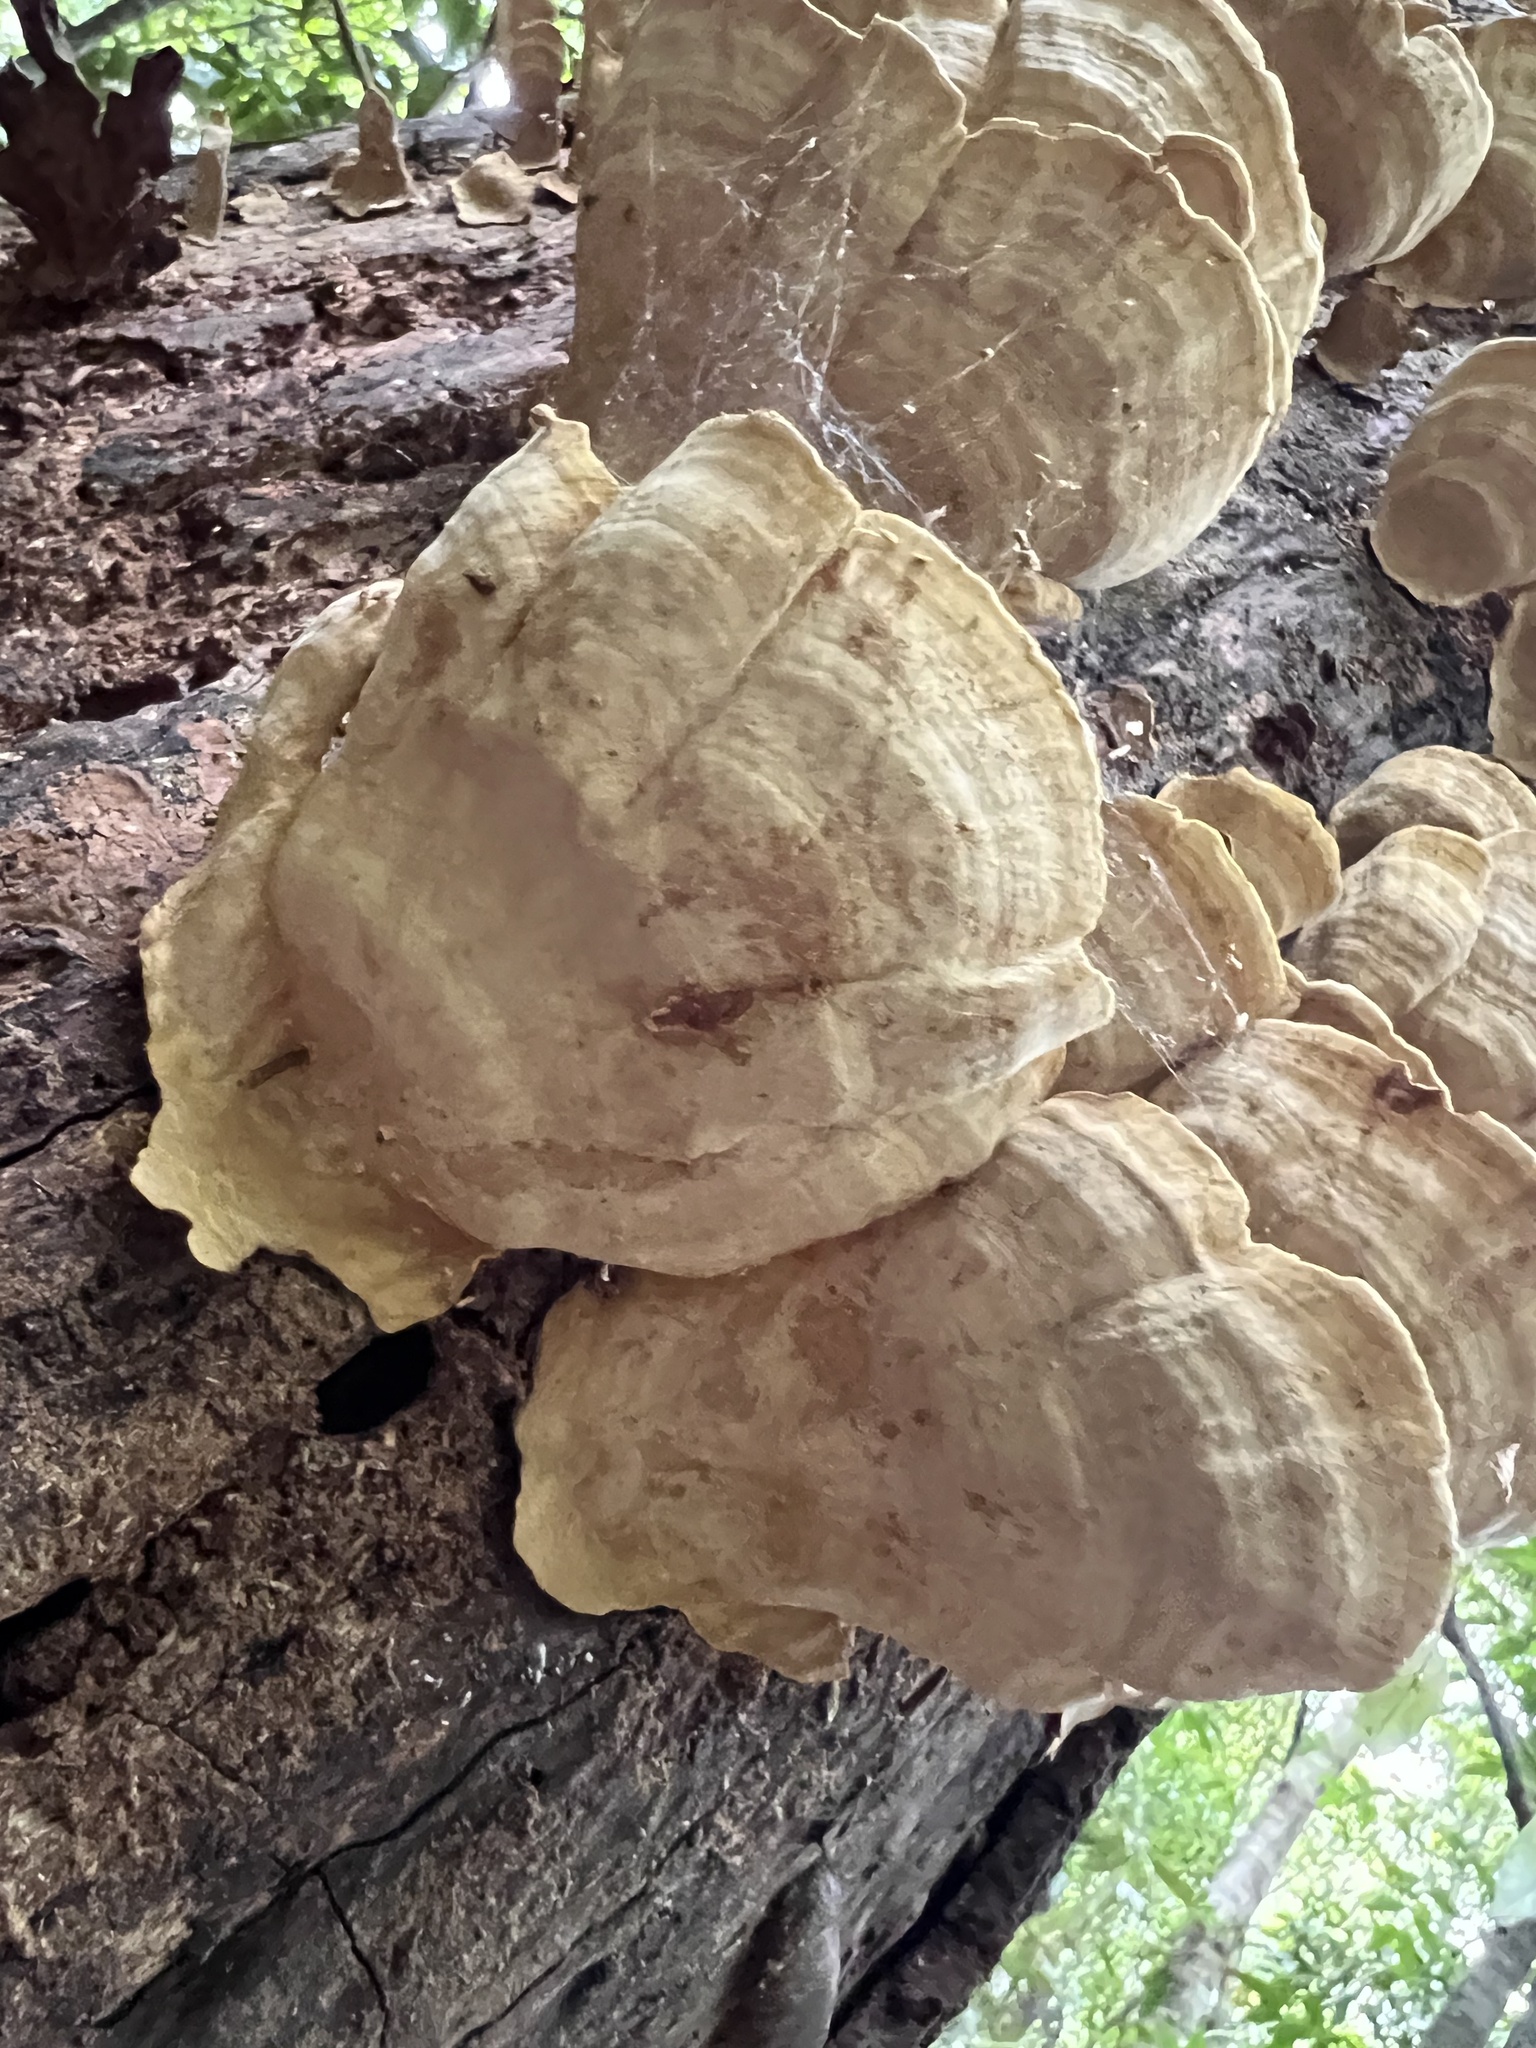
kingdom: Fungi
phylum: Basidiomycota
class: Agaricomycetes
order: Russulales
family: Stereaceae
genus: Stereum
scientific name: Stereum ostrea
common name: False turkeytail
